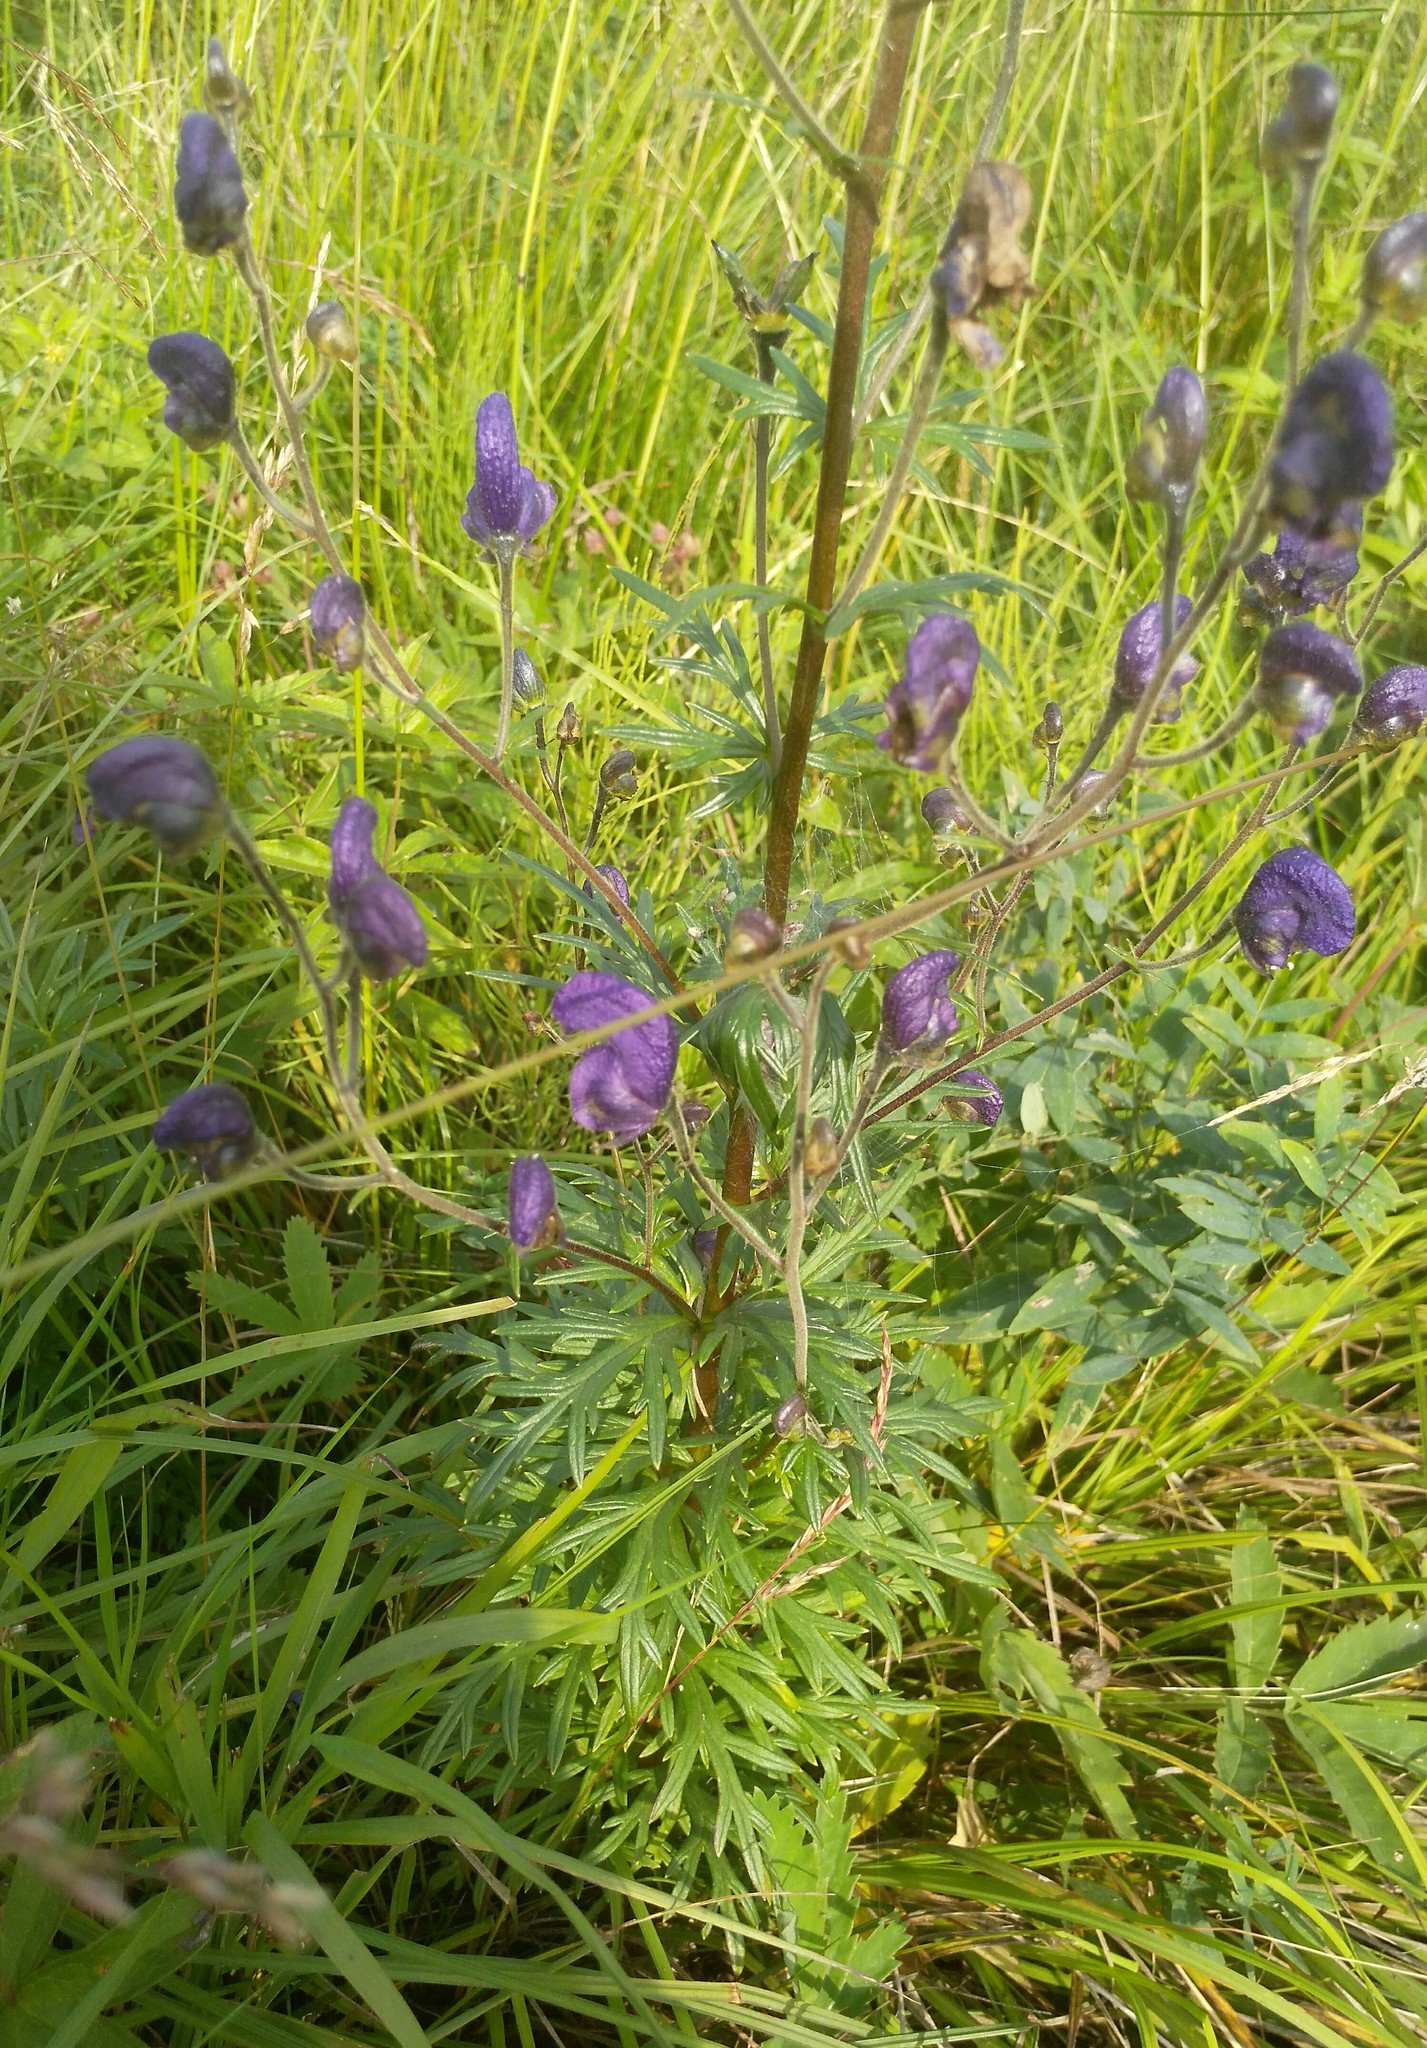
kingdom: Plantae
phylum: Tracheophyta
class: Magnoliopsida
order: Ranunculales
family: Ranunculaceae
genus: Aconitum
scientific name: Aconitum baicalense
